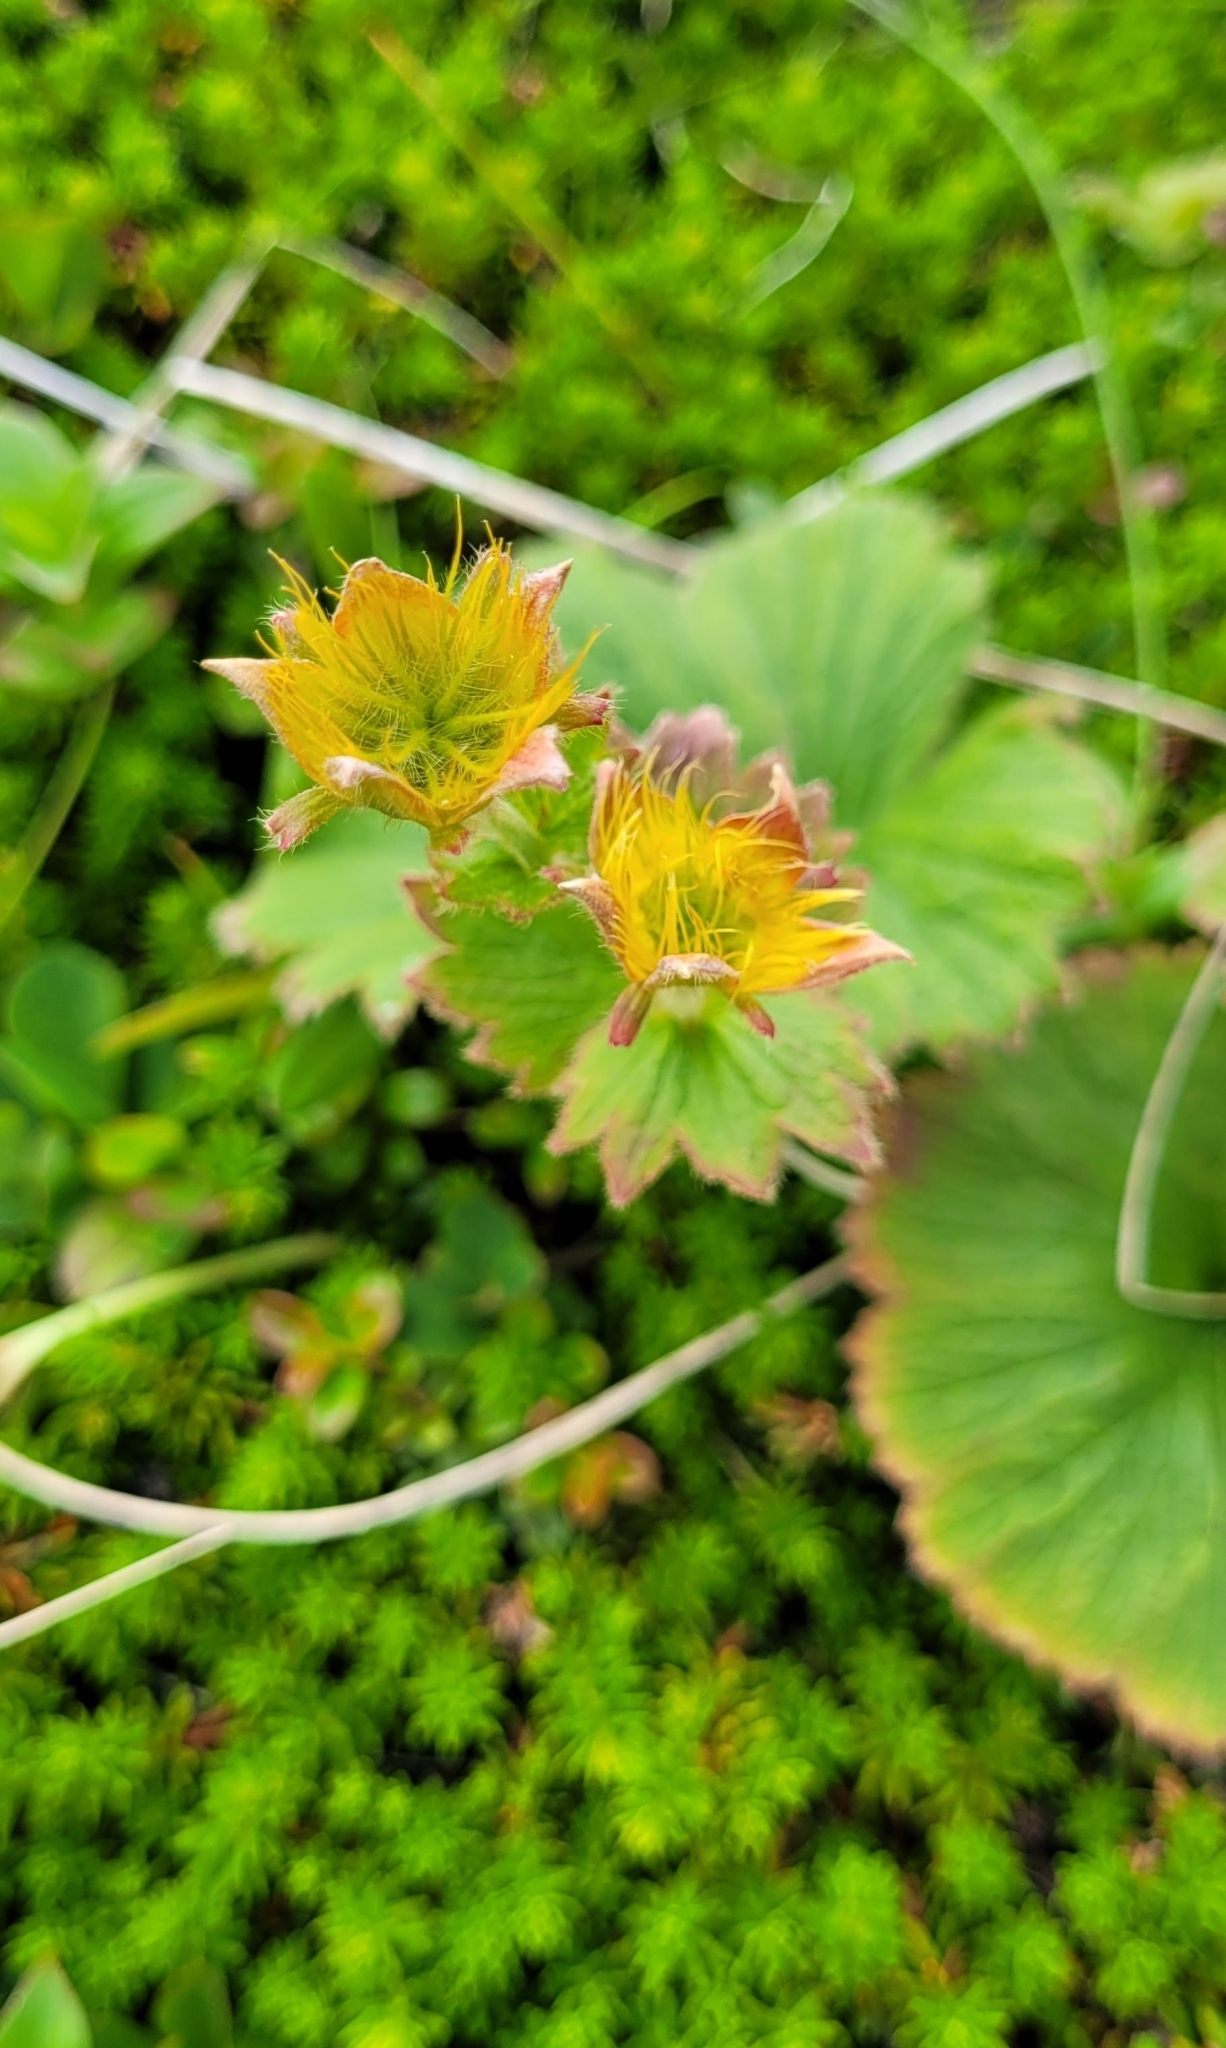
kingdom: Plantae
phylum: Tracheophyta
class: Magnoliopsida
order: Rosales
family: Rosaceae
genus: Geum
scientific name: Geum calthifolium
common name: Caltha-leaved avens
